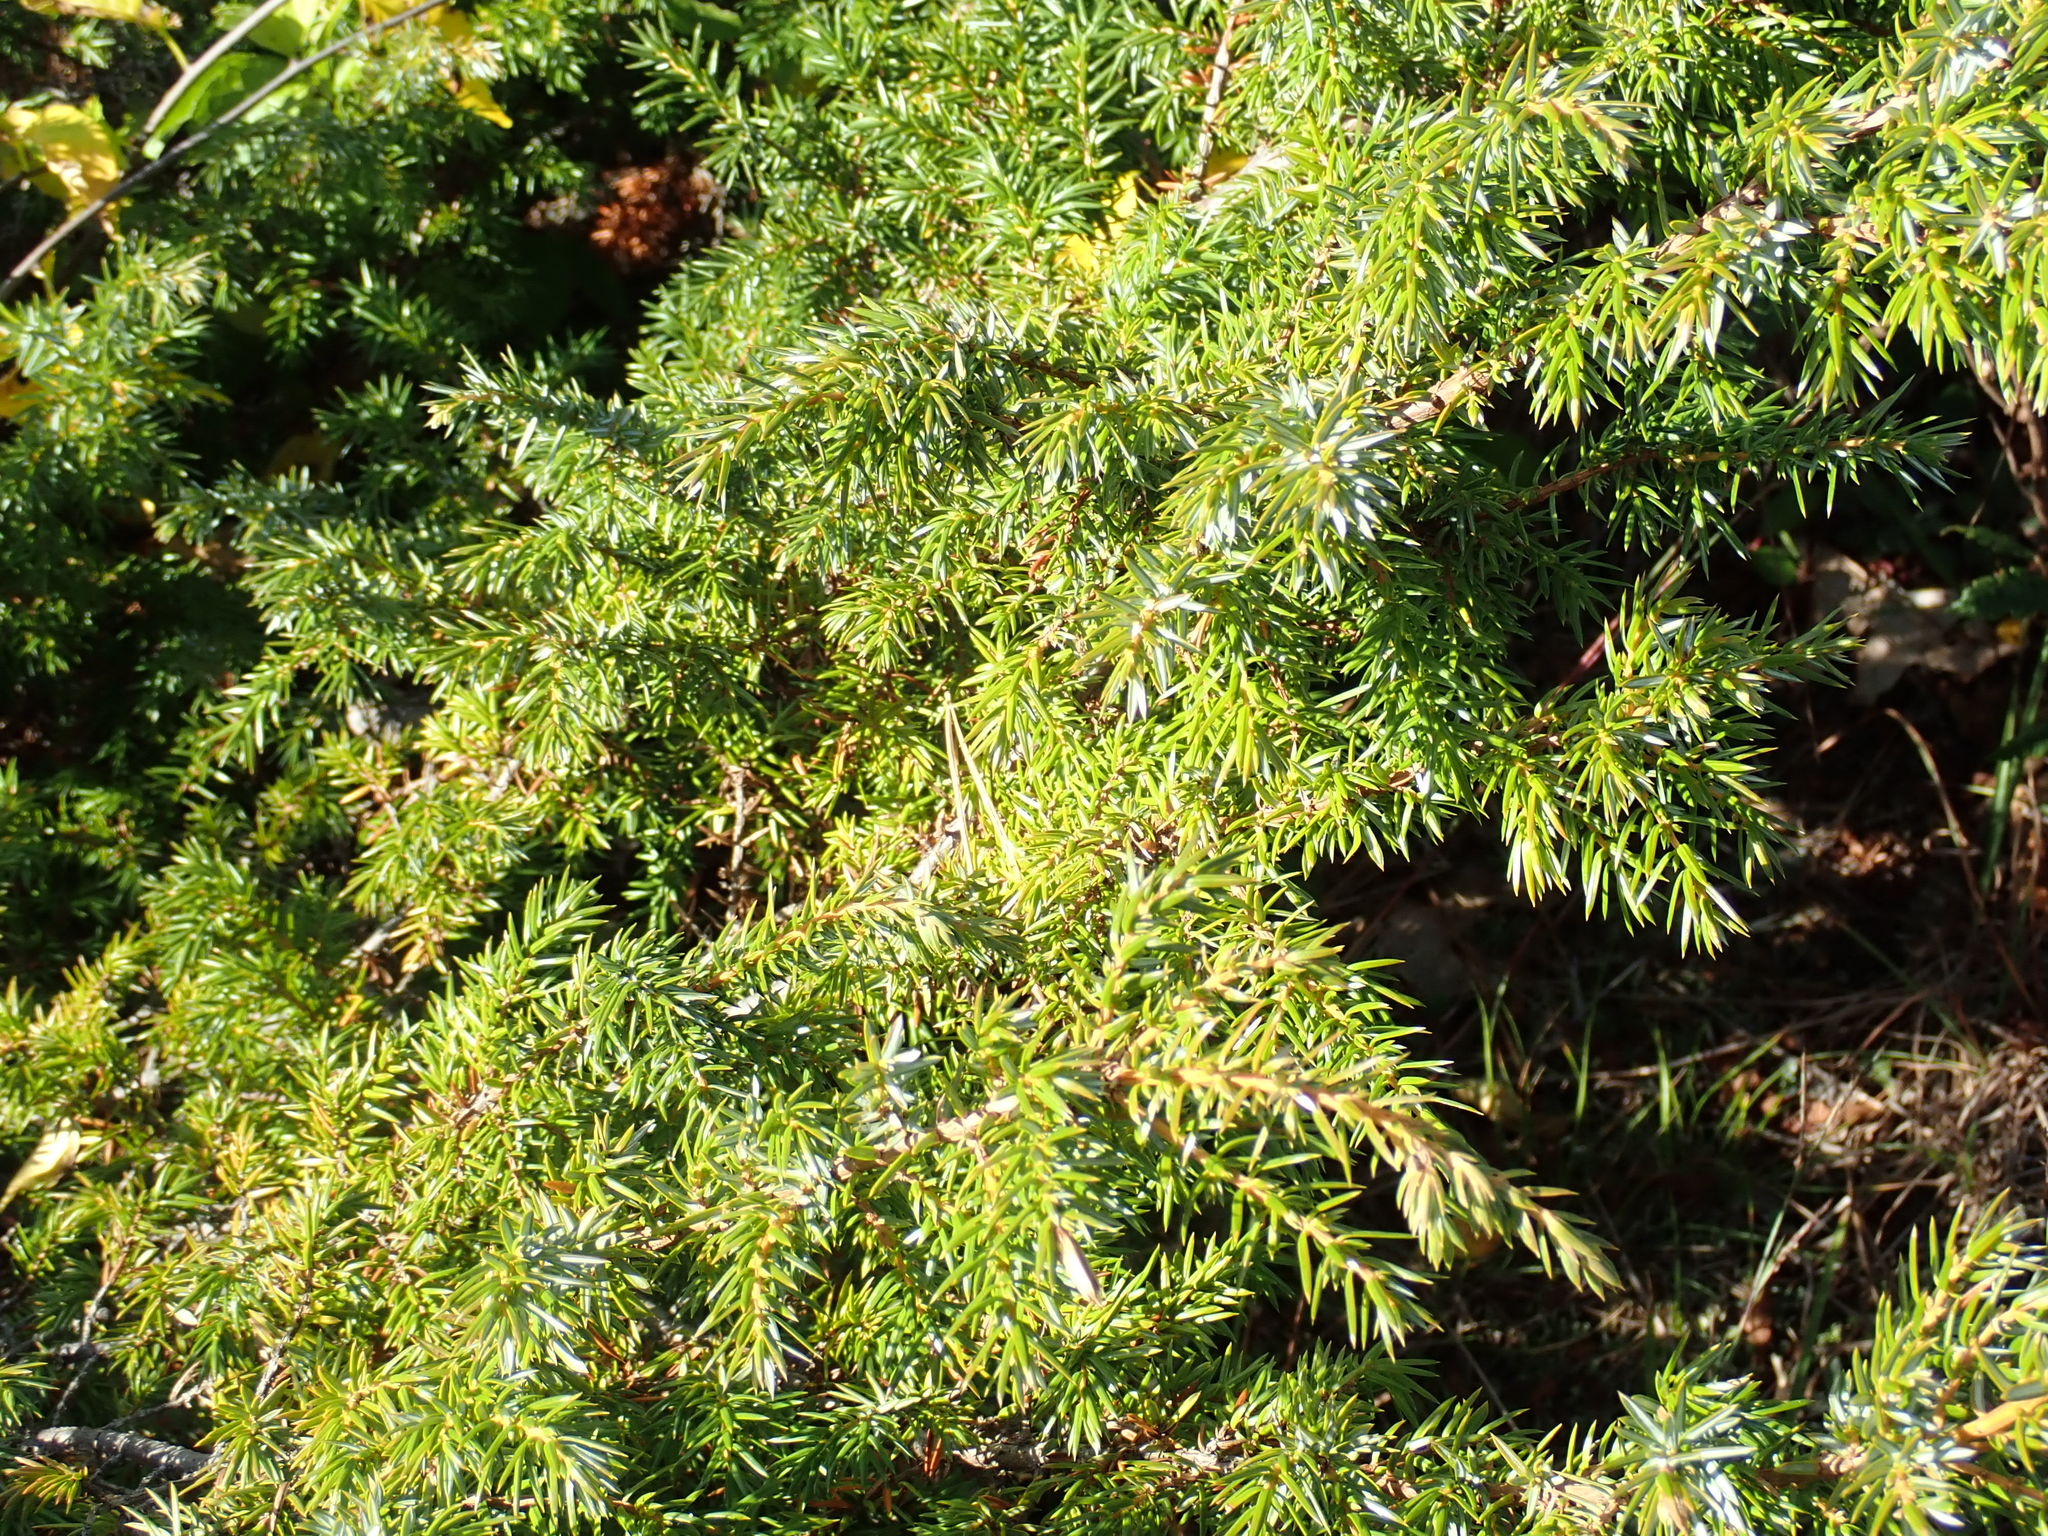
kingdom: Plantae
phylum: Tracheophyta
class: Pinopsida
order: Pinales
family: Cupressaceae
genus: Juniperus
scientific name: Juniperus communis
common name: Common juniper
